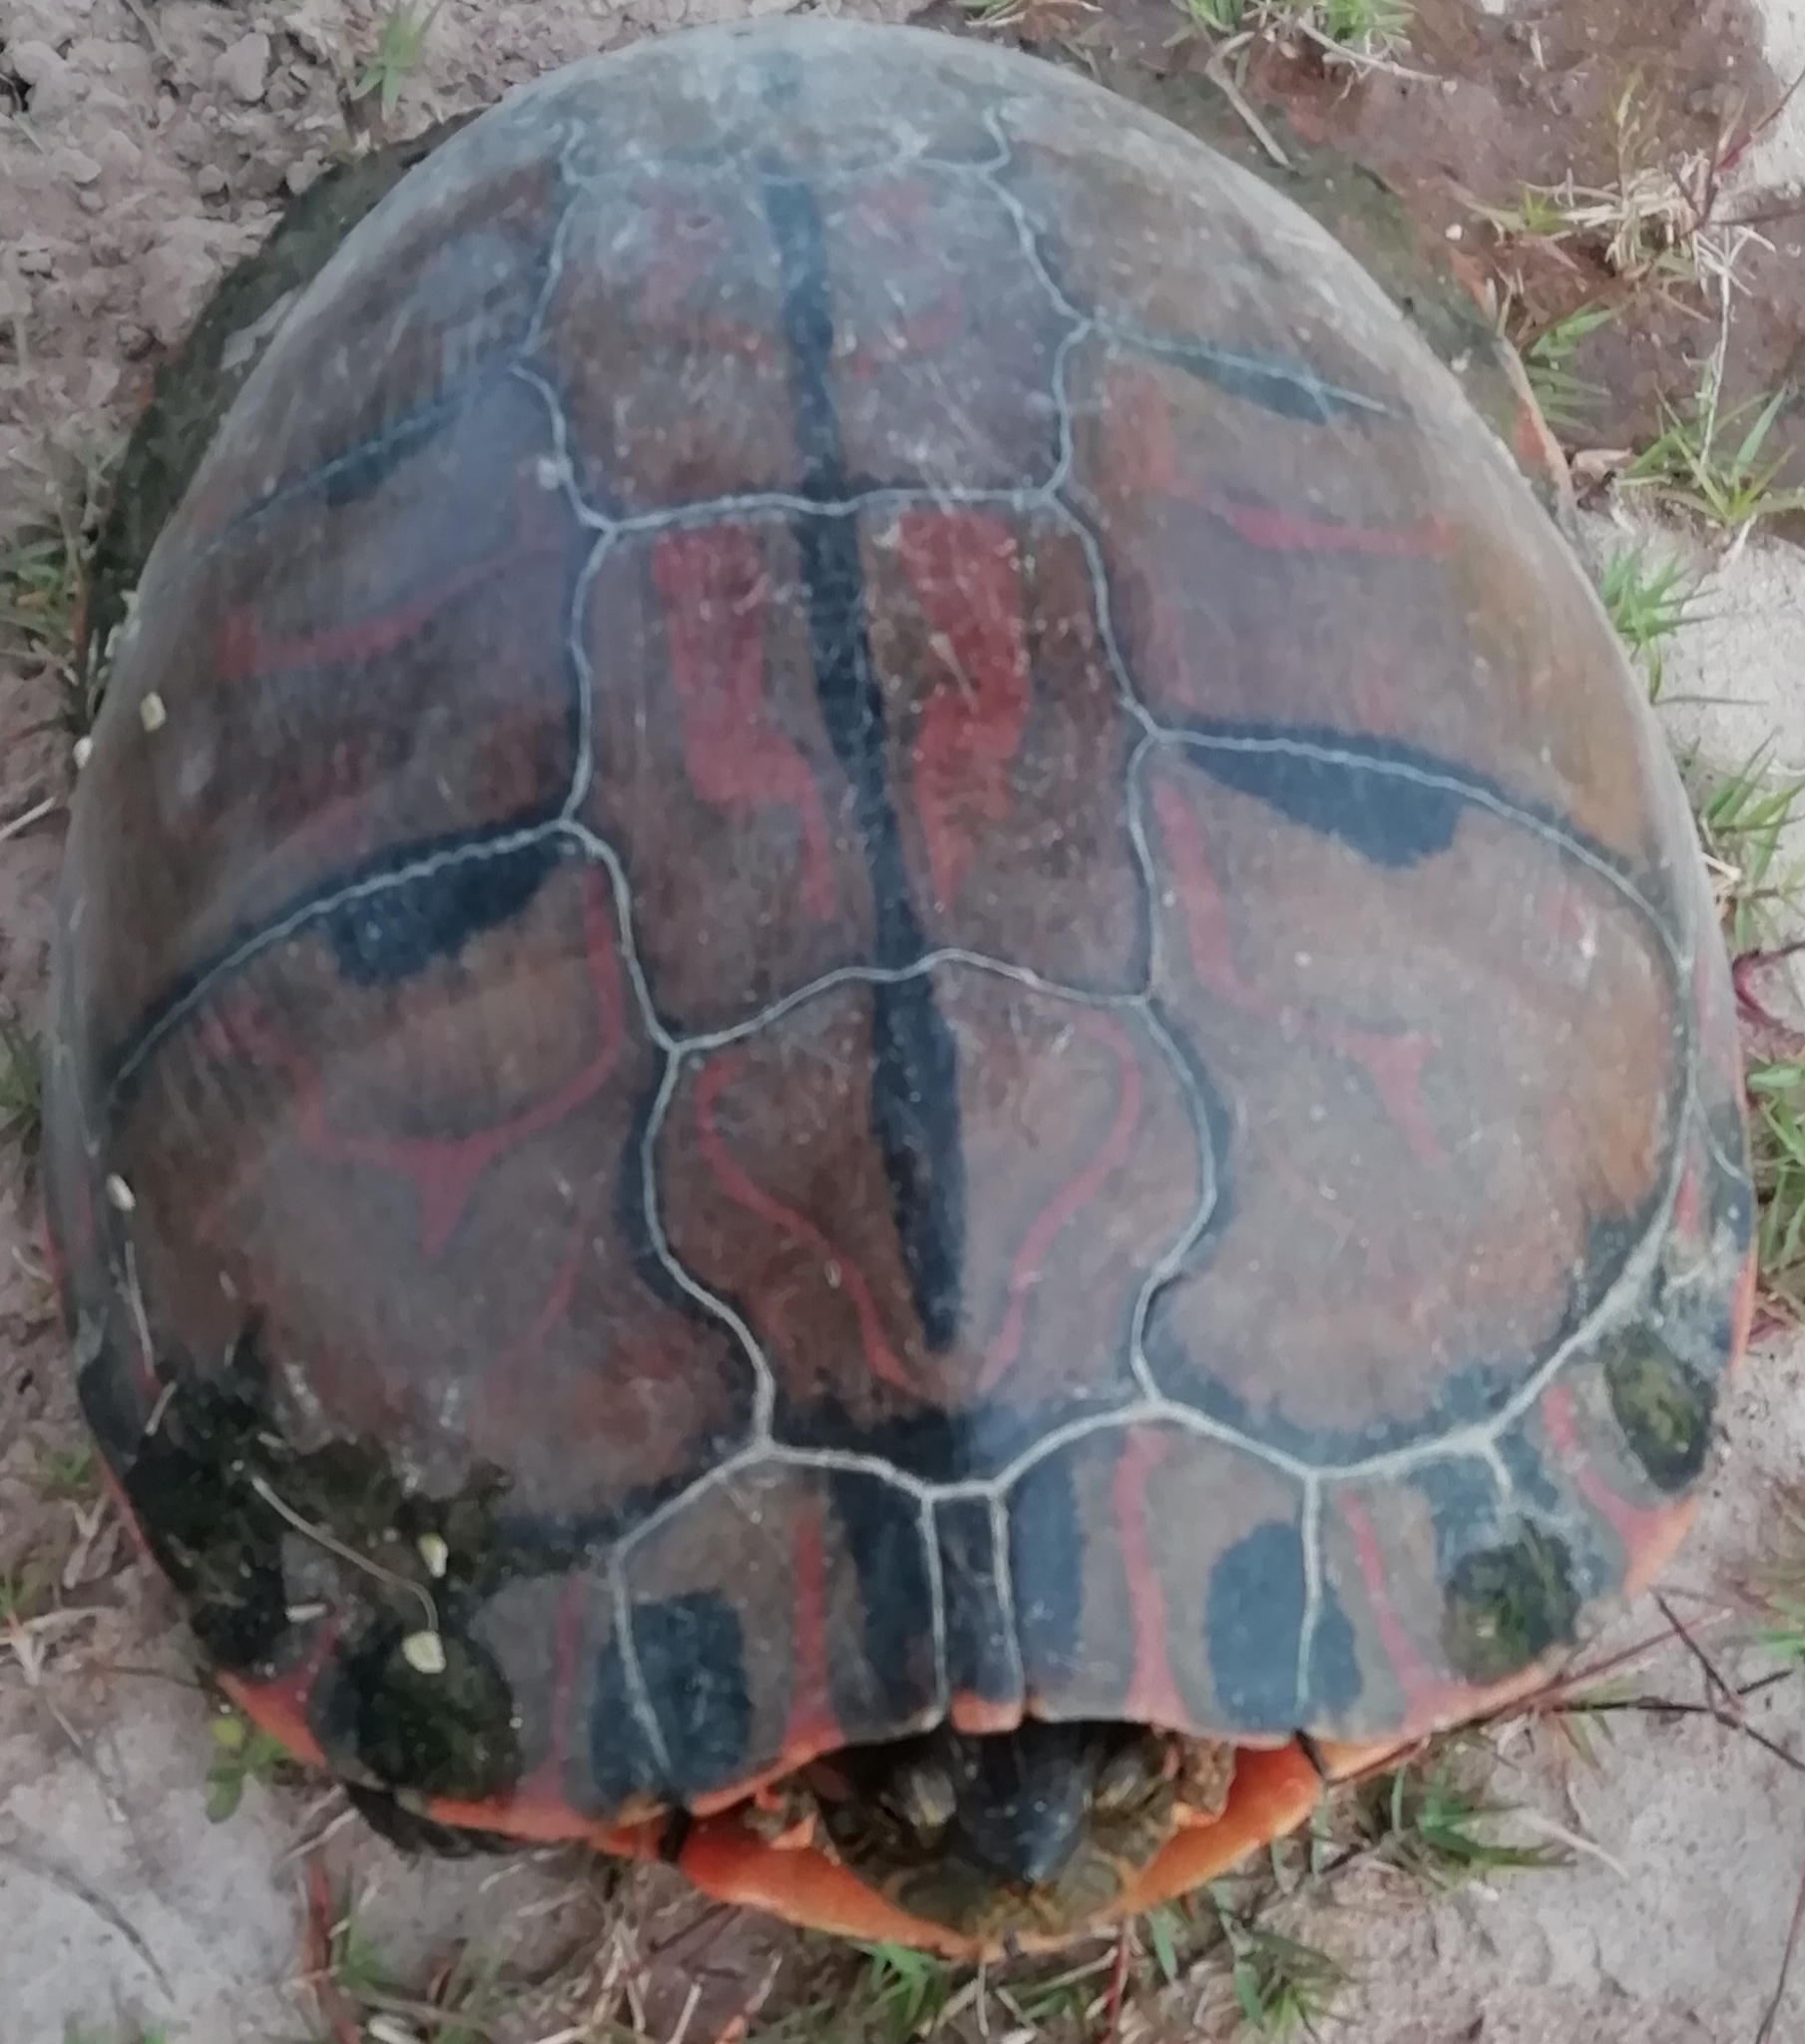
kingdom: Animalia
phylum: Chordata
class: Testudines
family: Emydidae
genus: Trachemys
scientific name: Trachemys dorbigni
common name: Black-bellied slider
